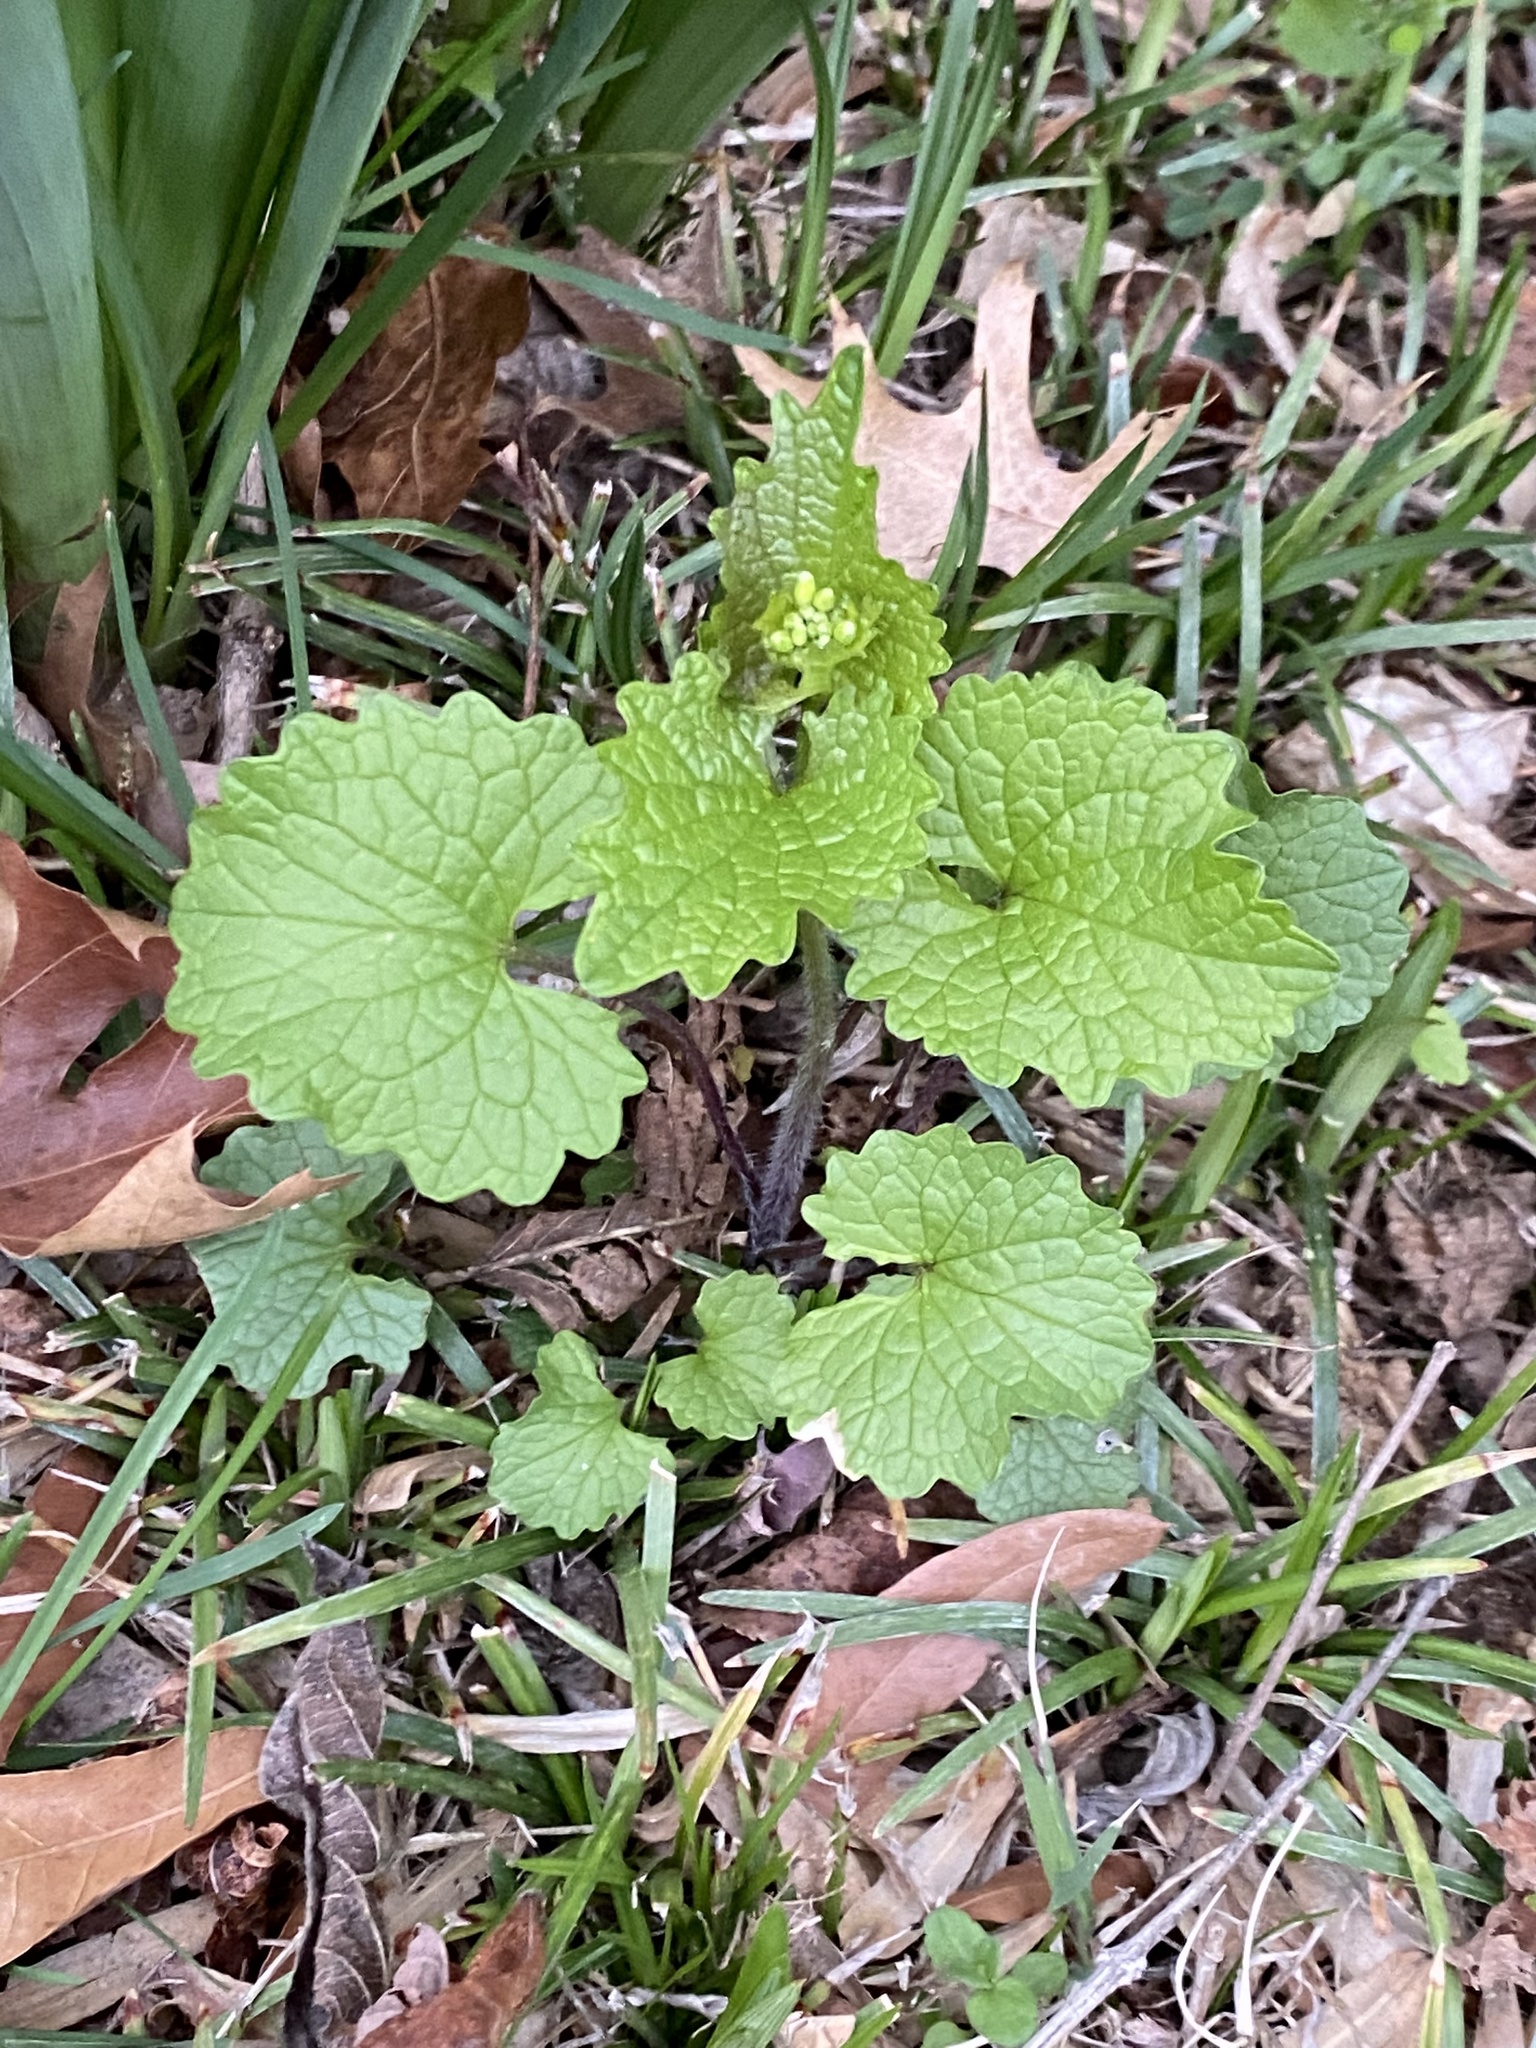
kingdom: Plantae
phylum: Tracheophyta
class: Magnoliopsida
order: Brassicales
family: Brassicaceae
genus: Alliaria
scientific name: Alliaria petiolata
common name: Garlic mustard
